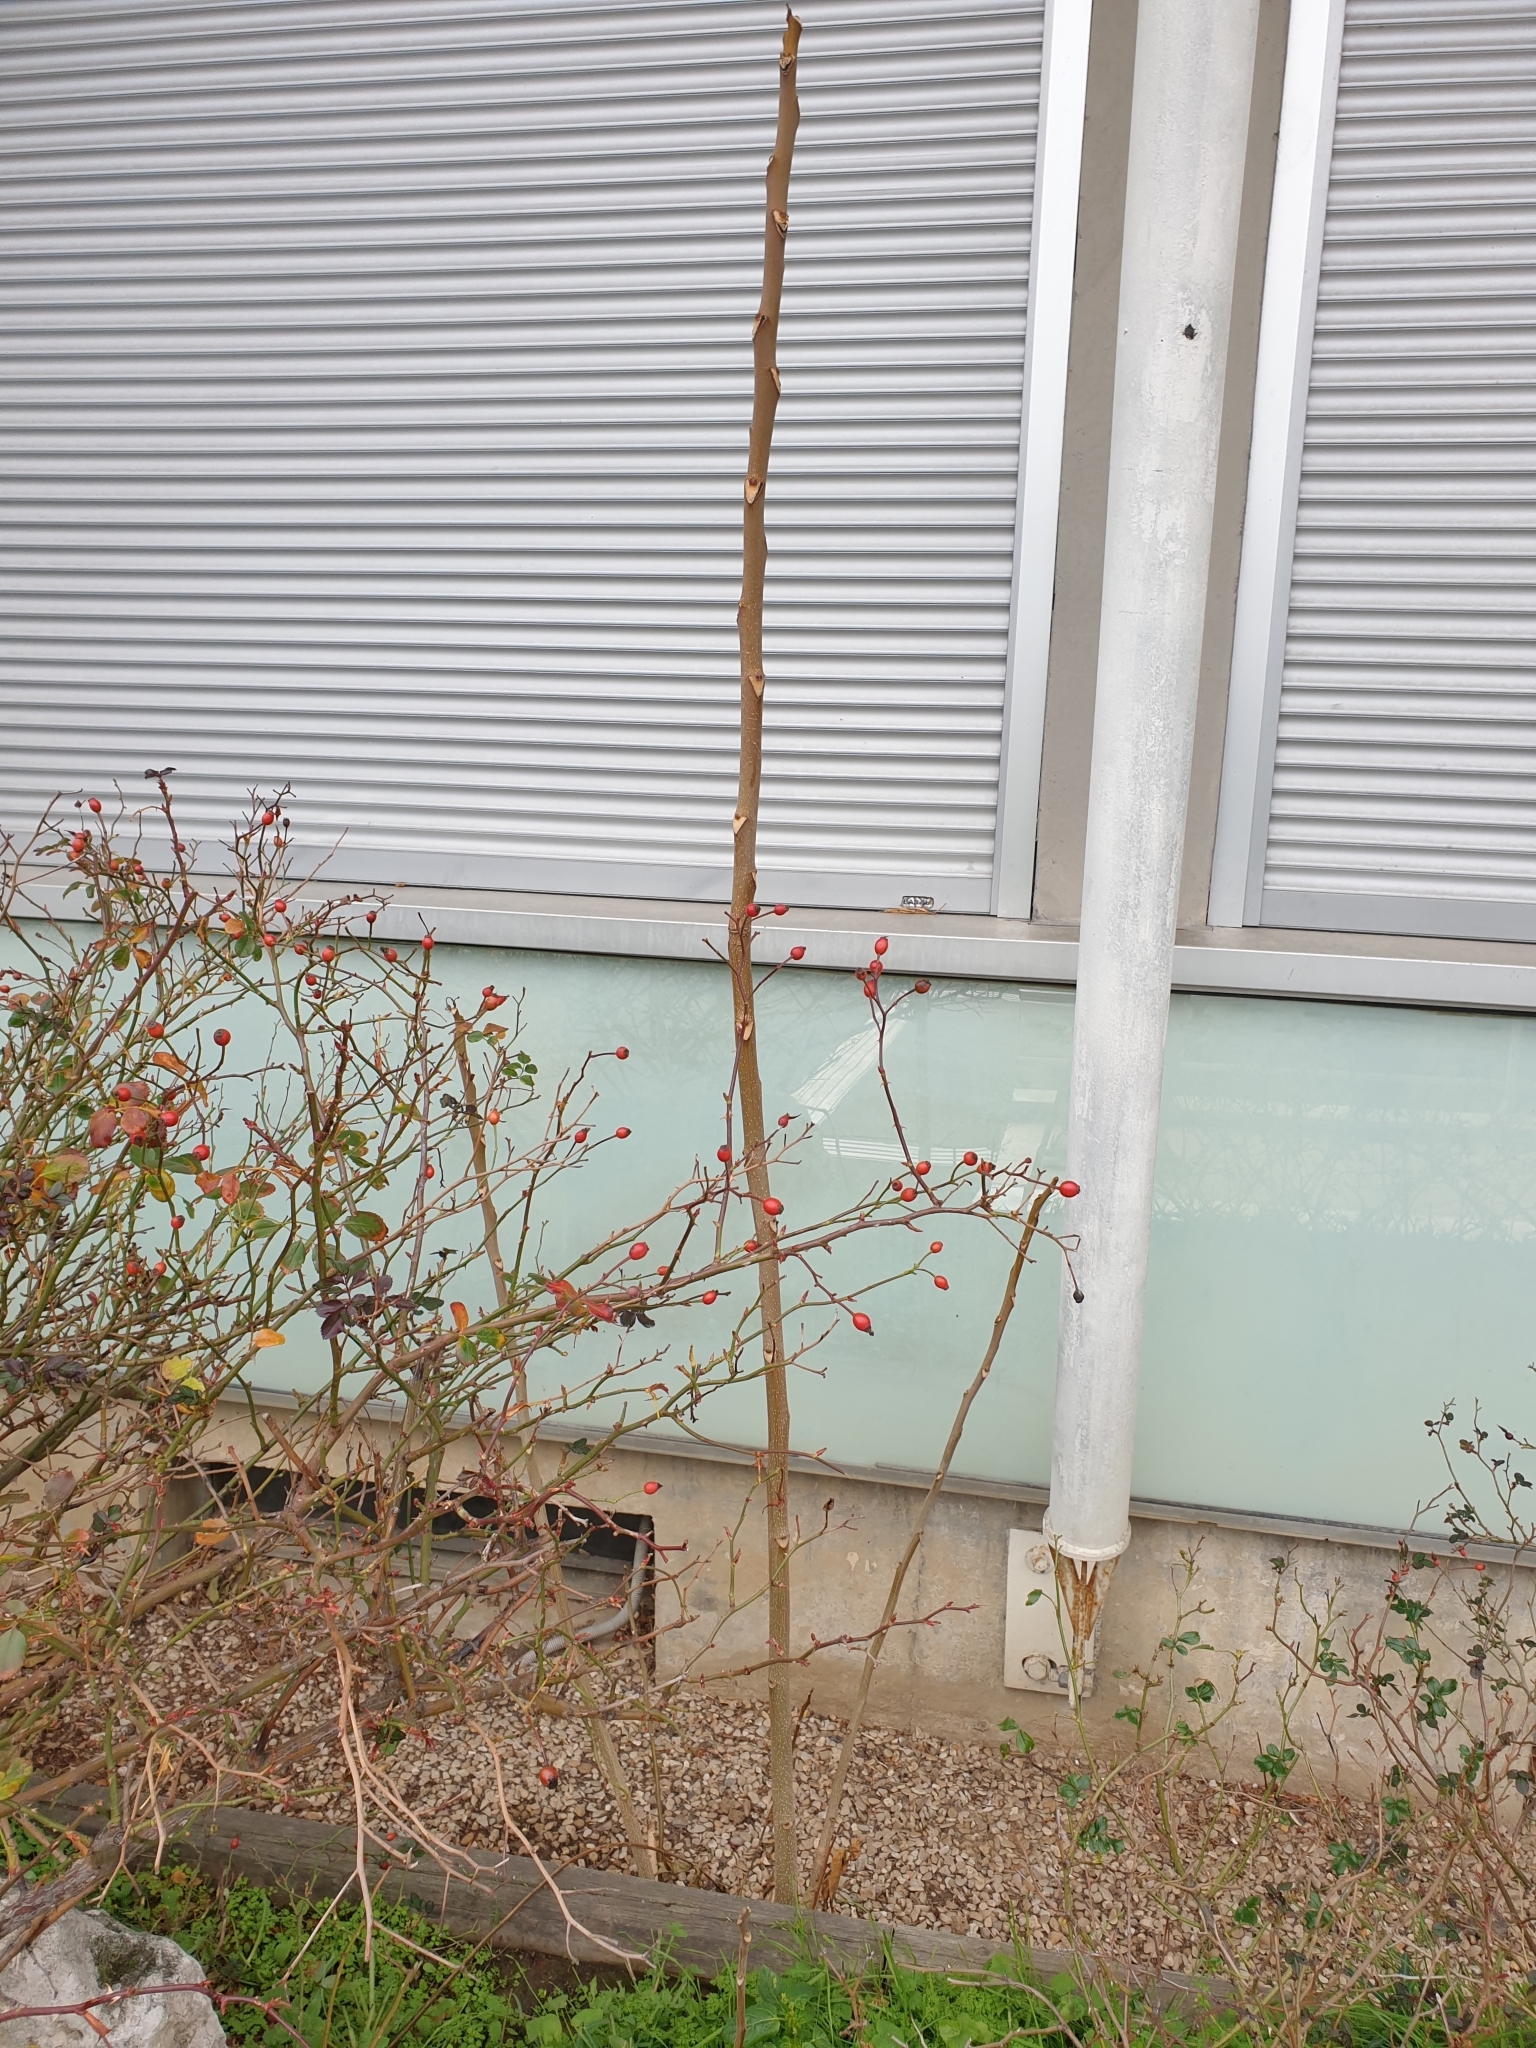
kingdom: Plantae
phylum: Tracheophyta
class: Magnoliopsida
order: Sapindales
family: Simaroubaceae
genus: Ailanthus
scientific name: Ailanthus altissima
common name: Tree-of-heaven
